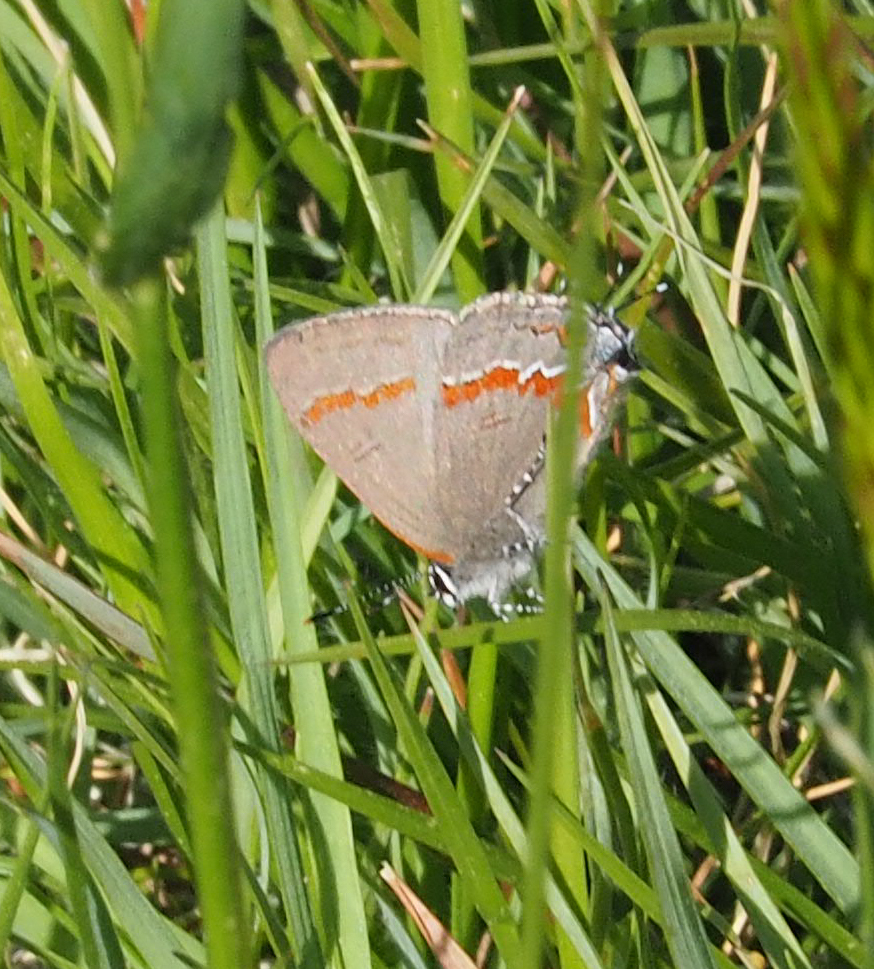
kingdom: Animalia
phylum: Arthropoda
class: Insecta
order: Lepidoptera
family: Lycaenidae
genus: Calycopis
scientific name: Calycopis cecrops
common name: Red-banded hairstreak
